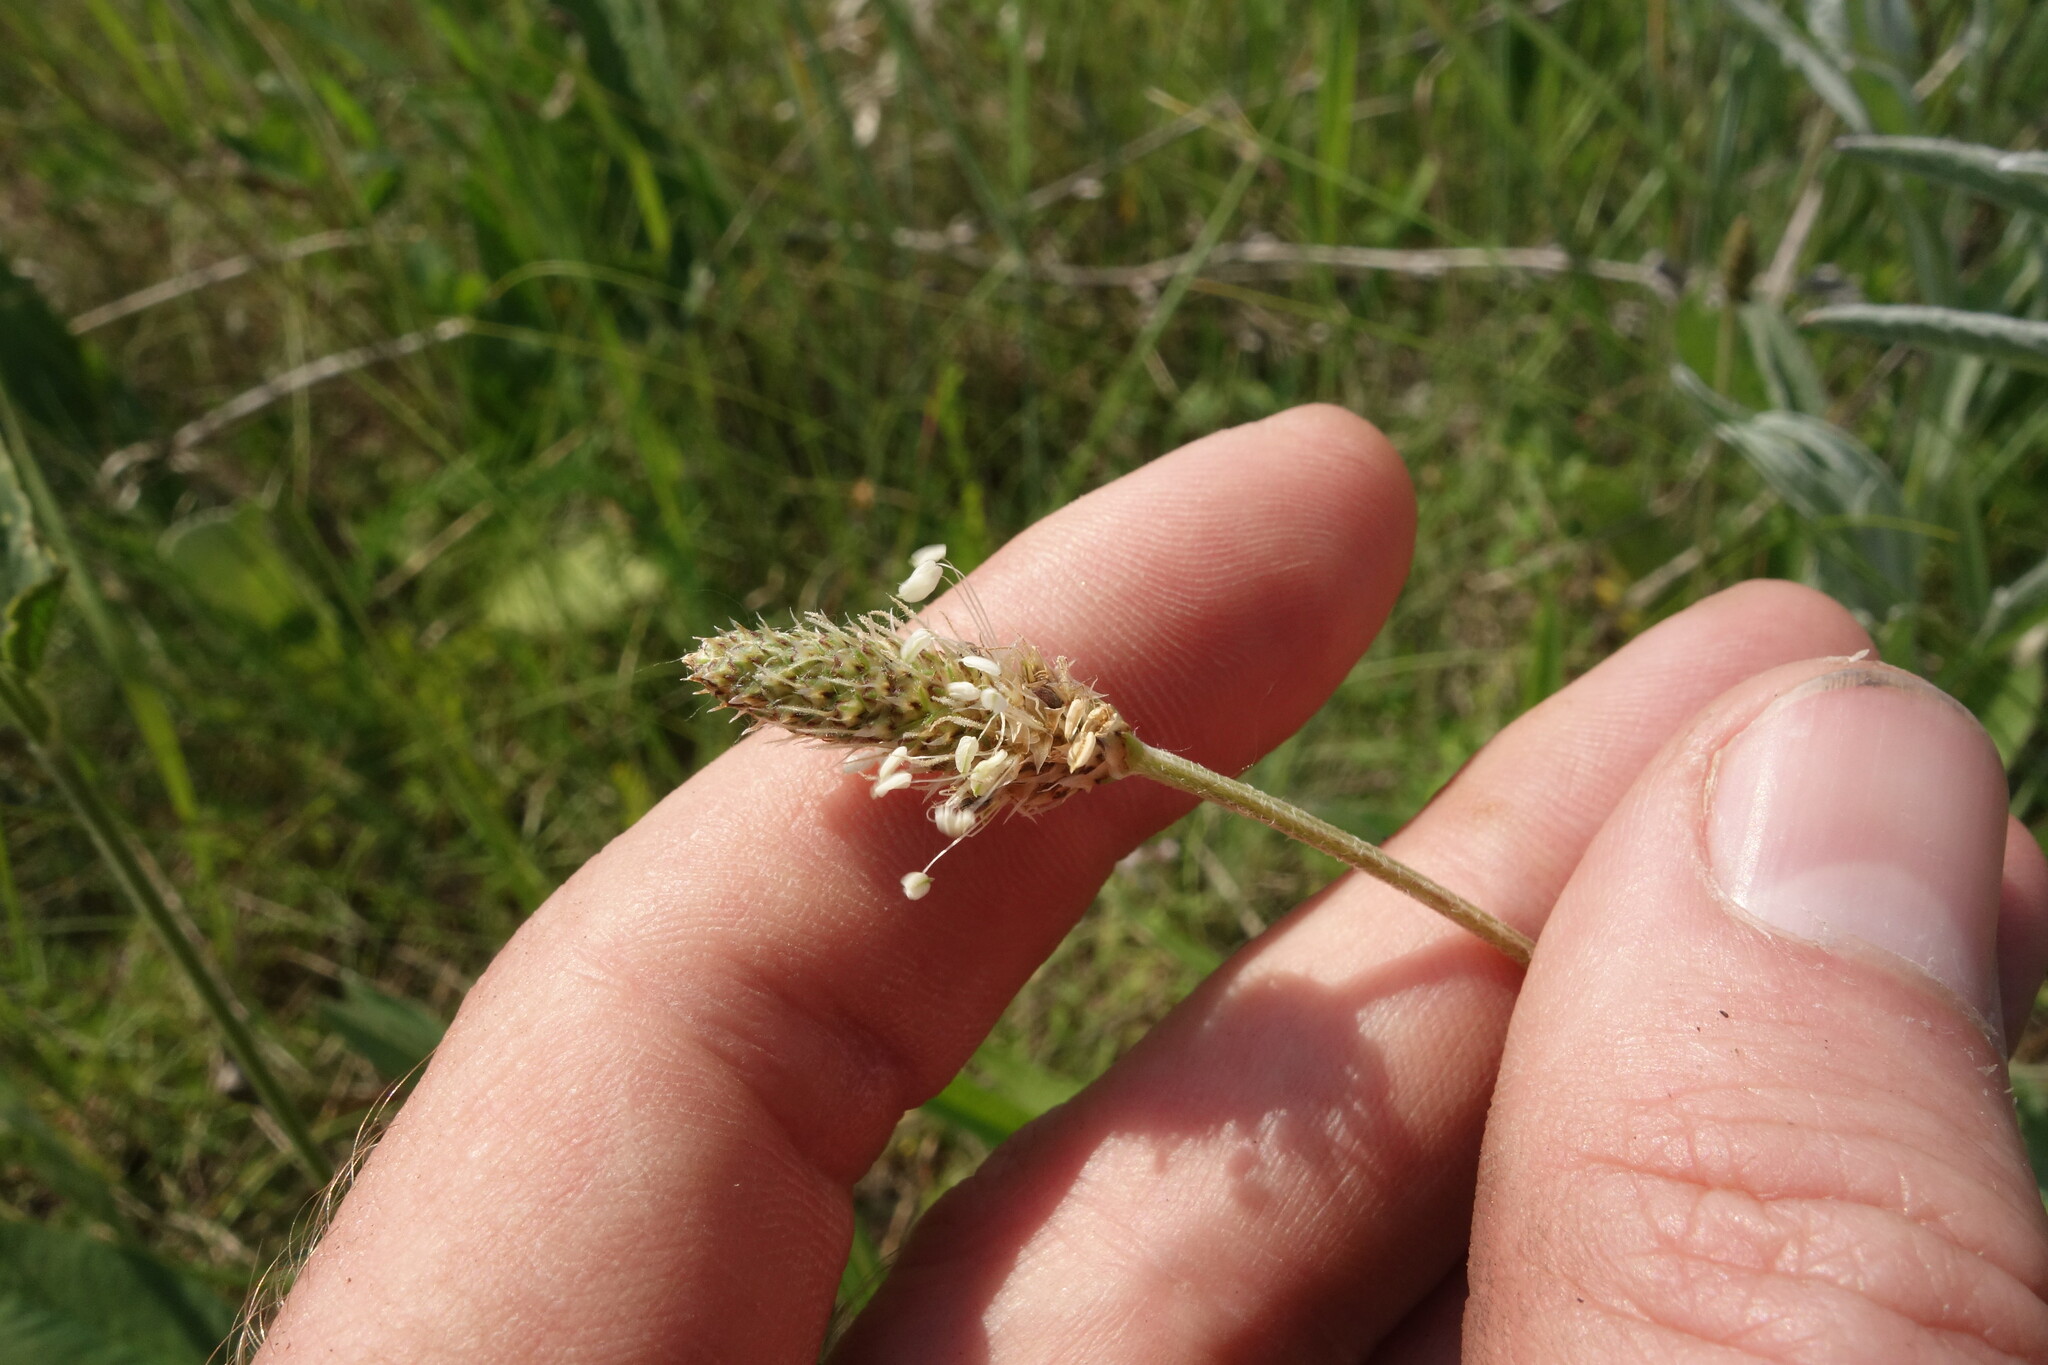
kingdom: Plantae
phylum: Tracheophyta
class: Magnoliopsida
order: Lamiales
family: Plantaginaceae
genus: Plantago
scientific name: Plantago lanceolata
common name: Ribwort plantain
